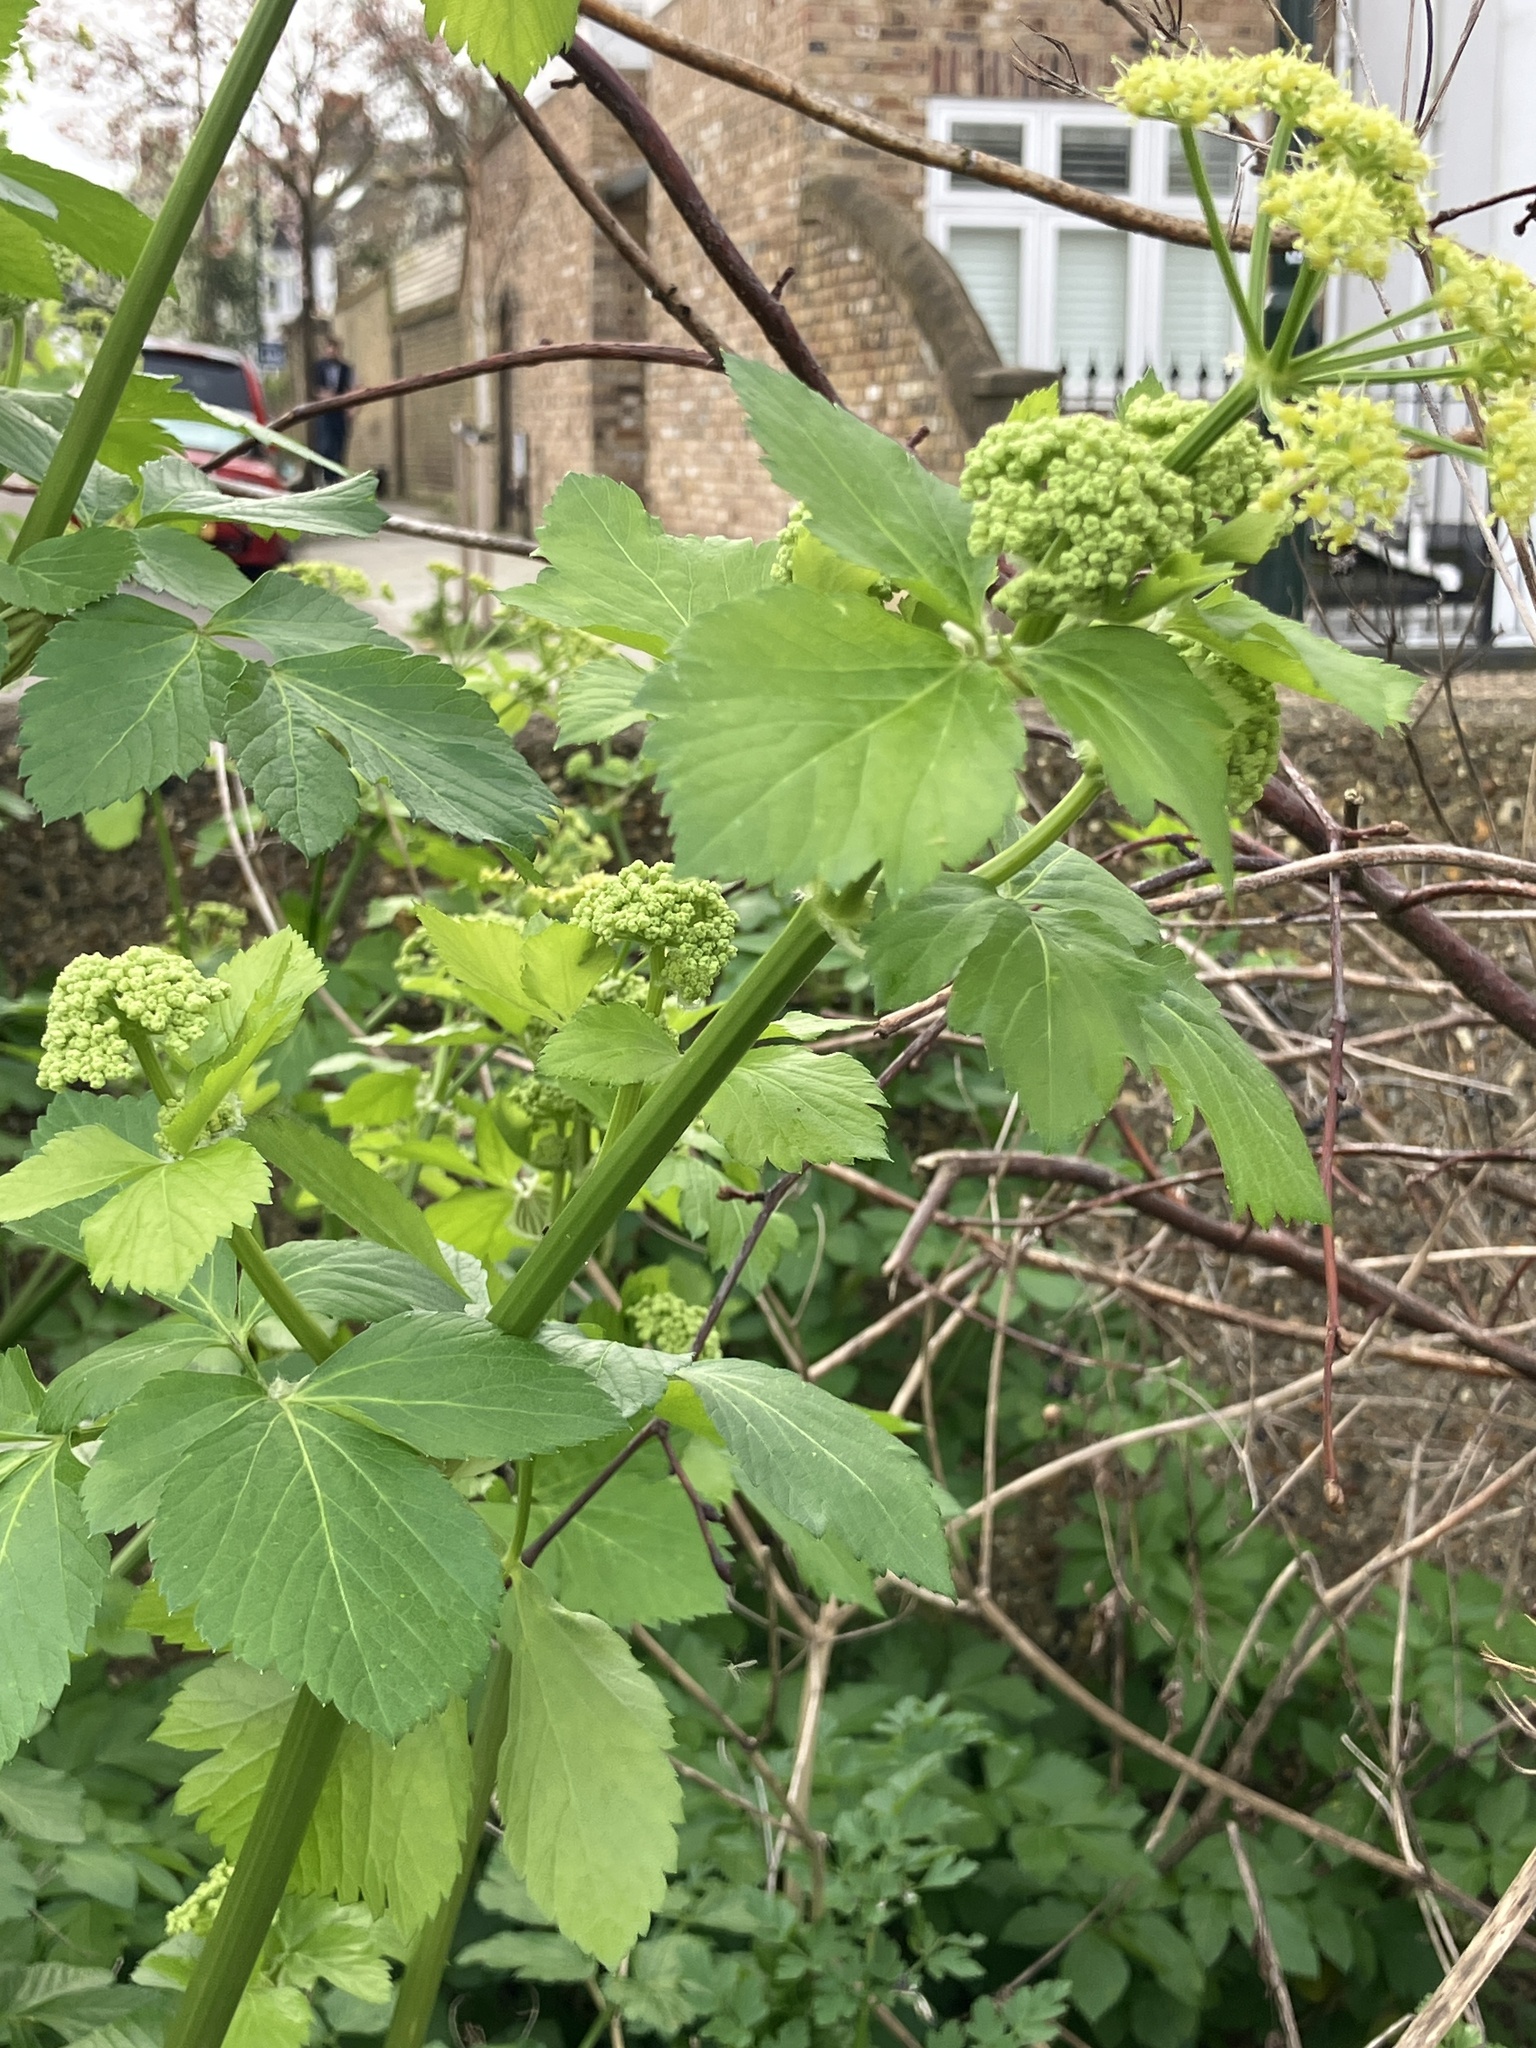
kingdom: Plantae
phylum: Tracheophyta
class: Magnoliopsida
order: Apiales
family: Apiaceae
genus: Smyrnium
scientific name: Smyrnium olusatrum
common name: Alexanders
